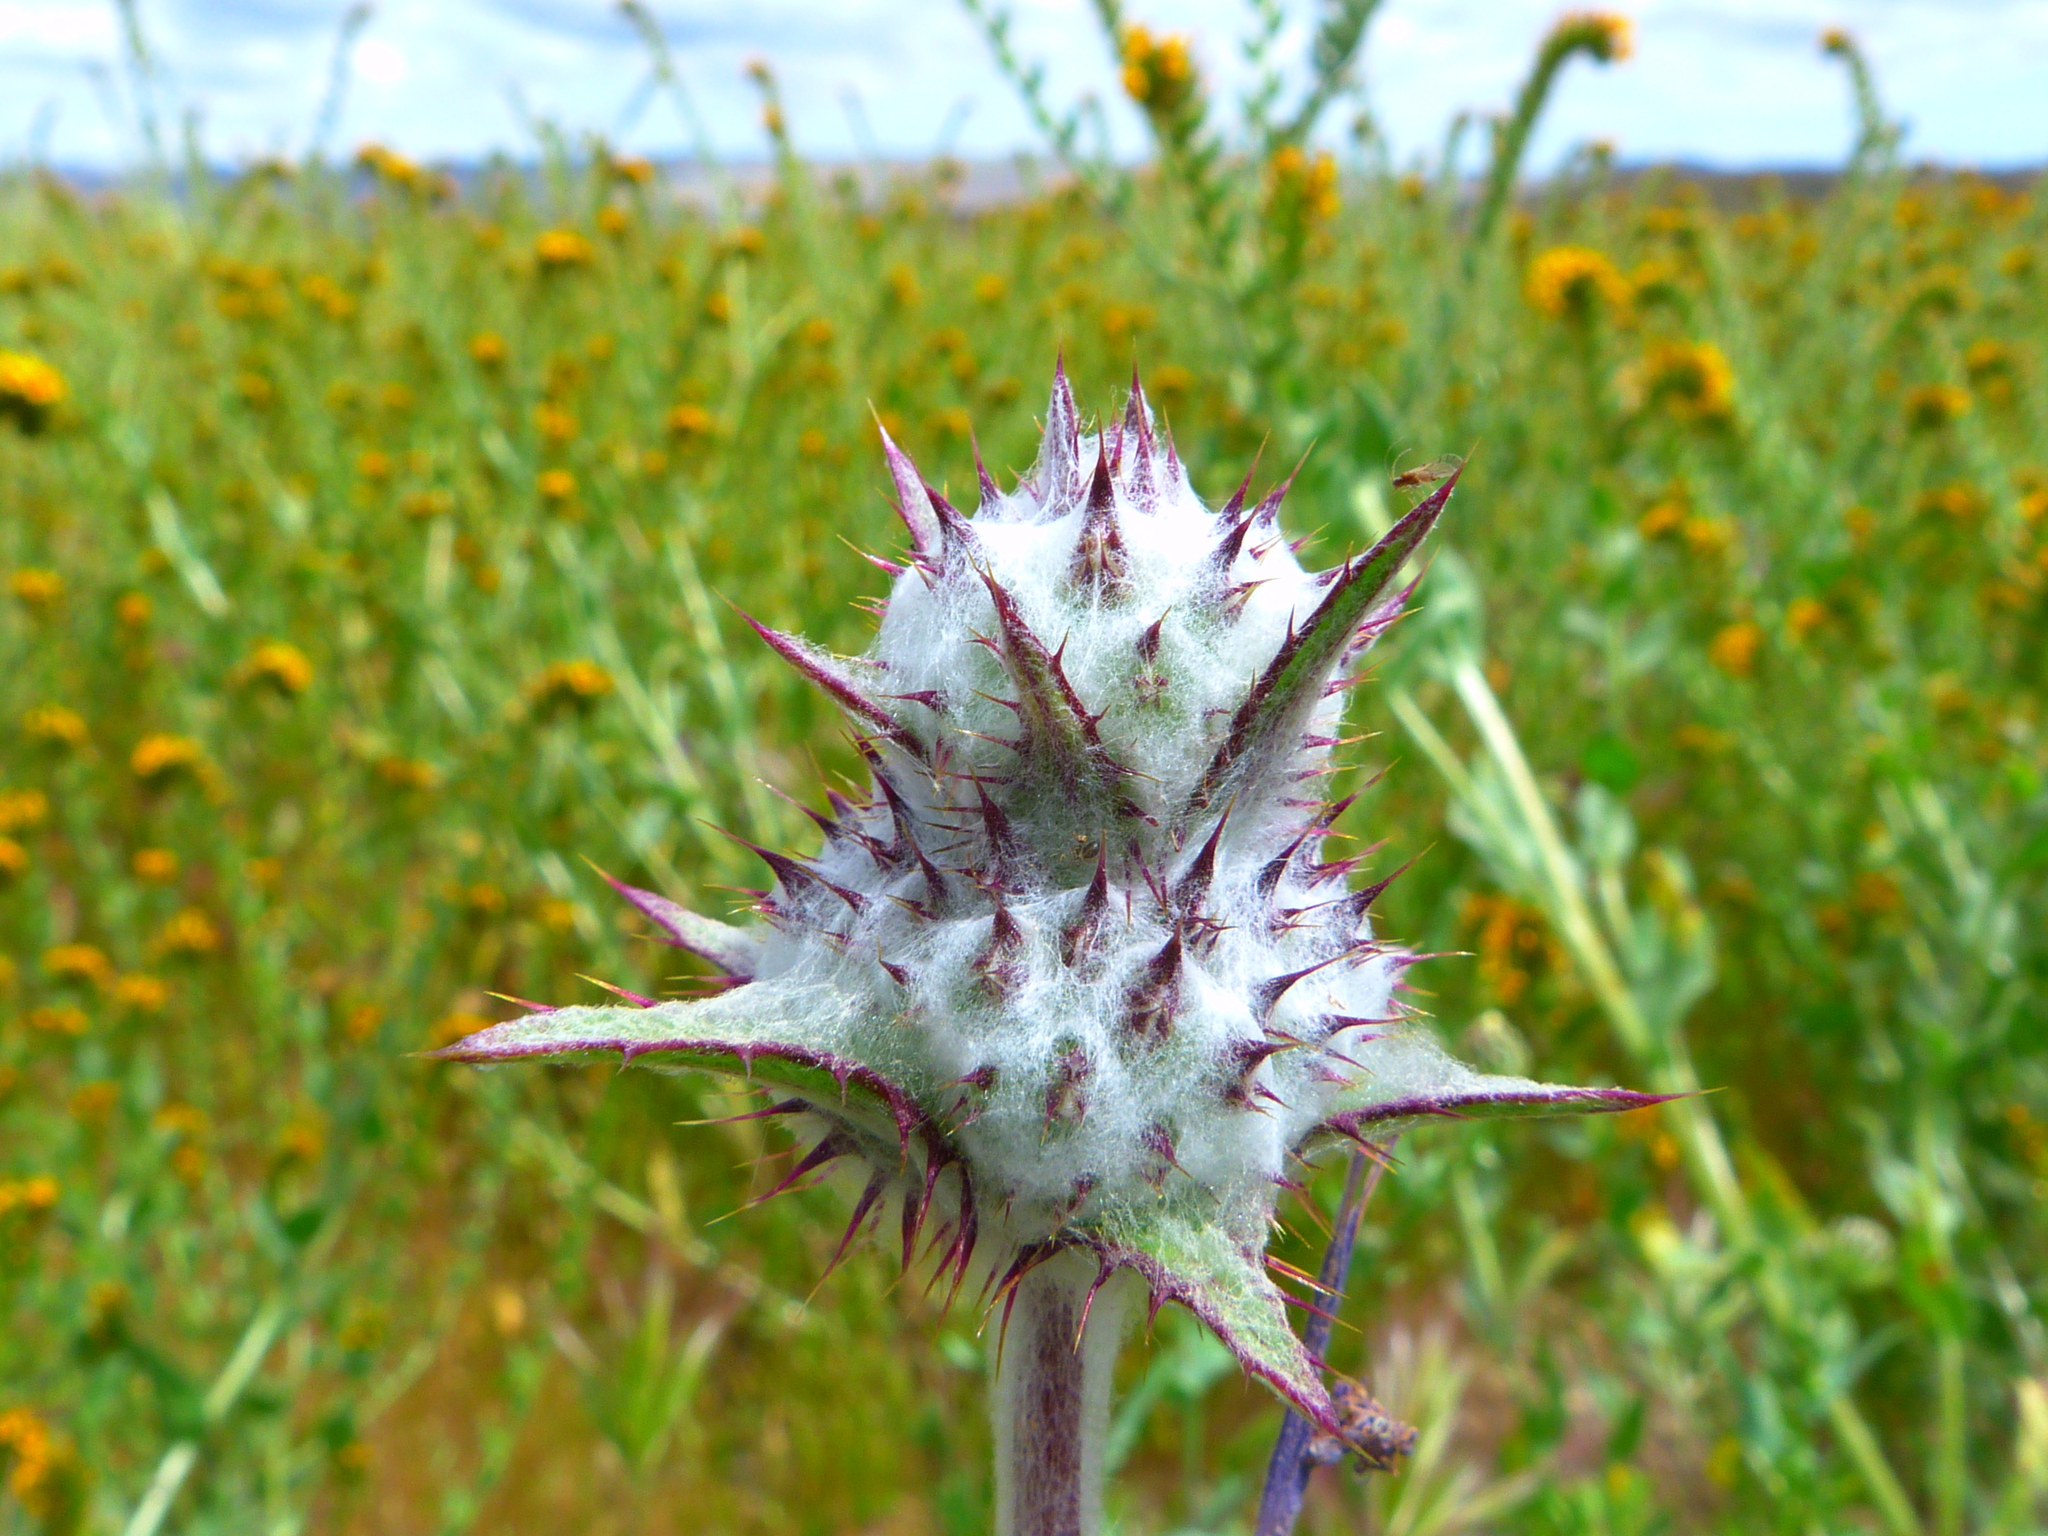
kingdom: Plantae
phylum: Tracheophyta
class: Magnoliopsida
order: Lamiales
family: Lamiaceae
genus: Salvia
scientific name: Salvia carduacea
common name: Thistle sage
